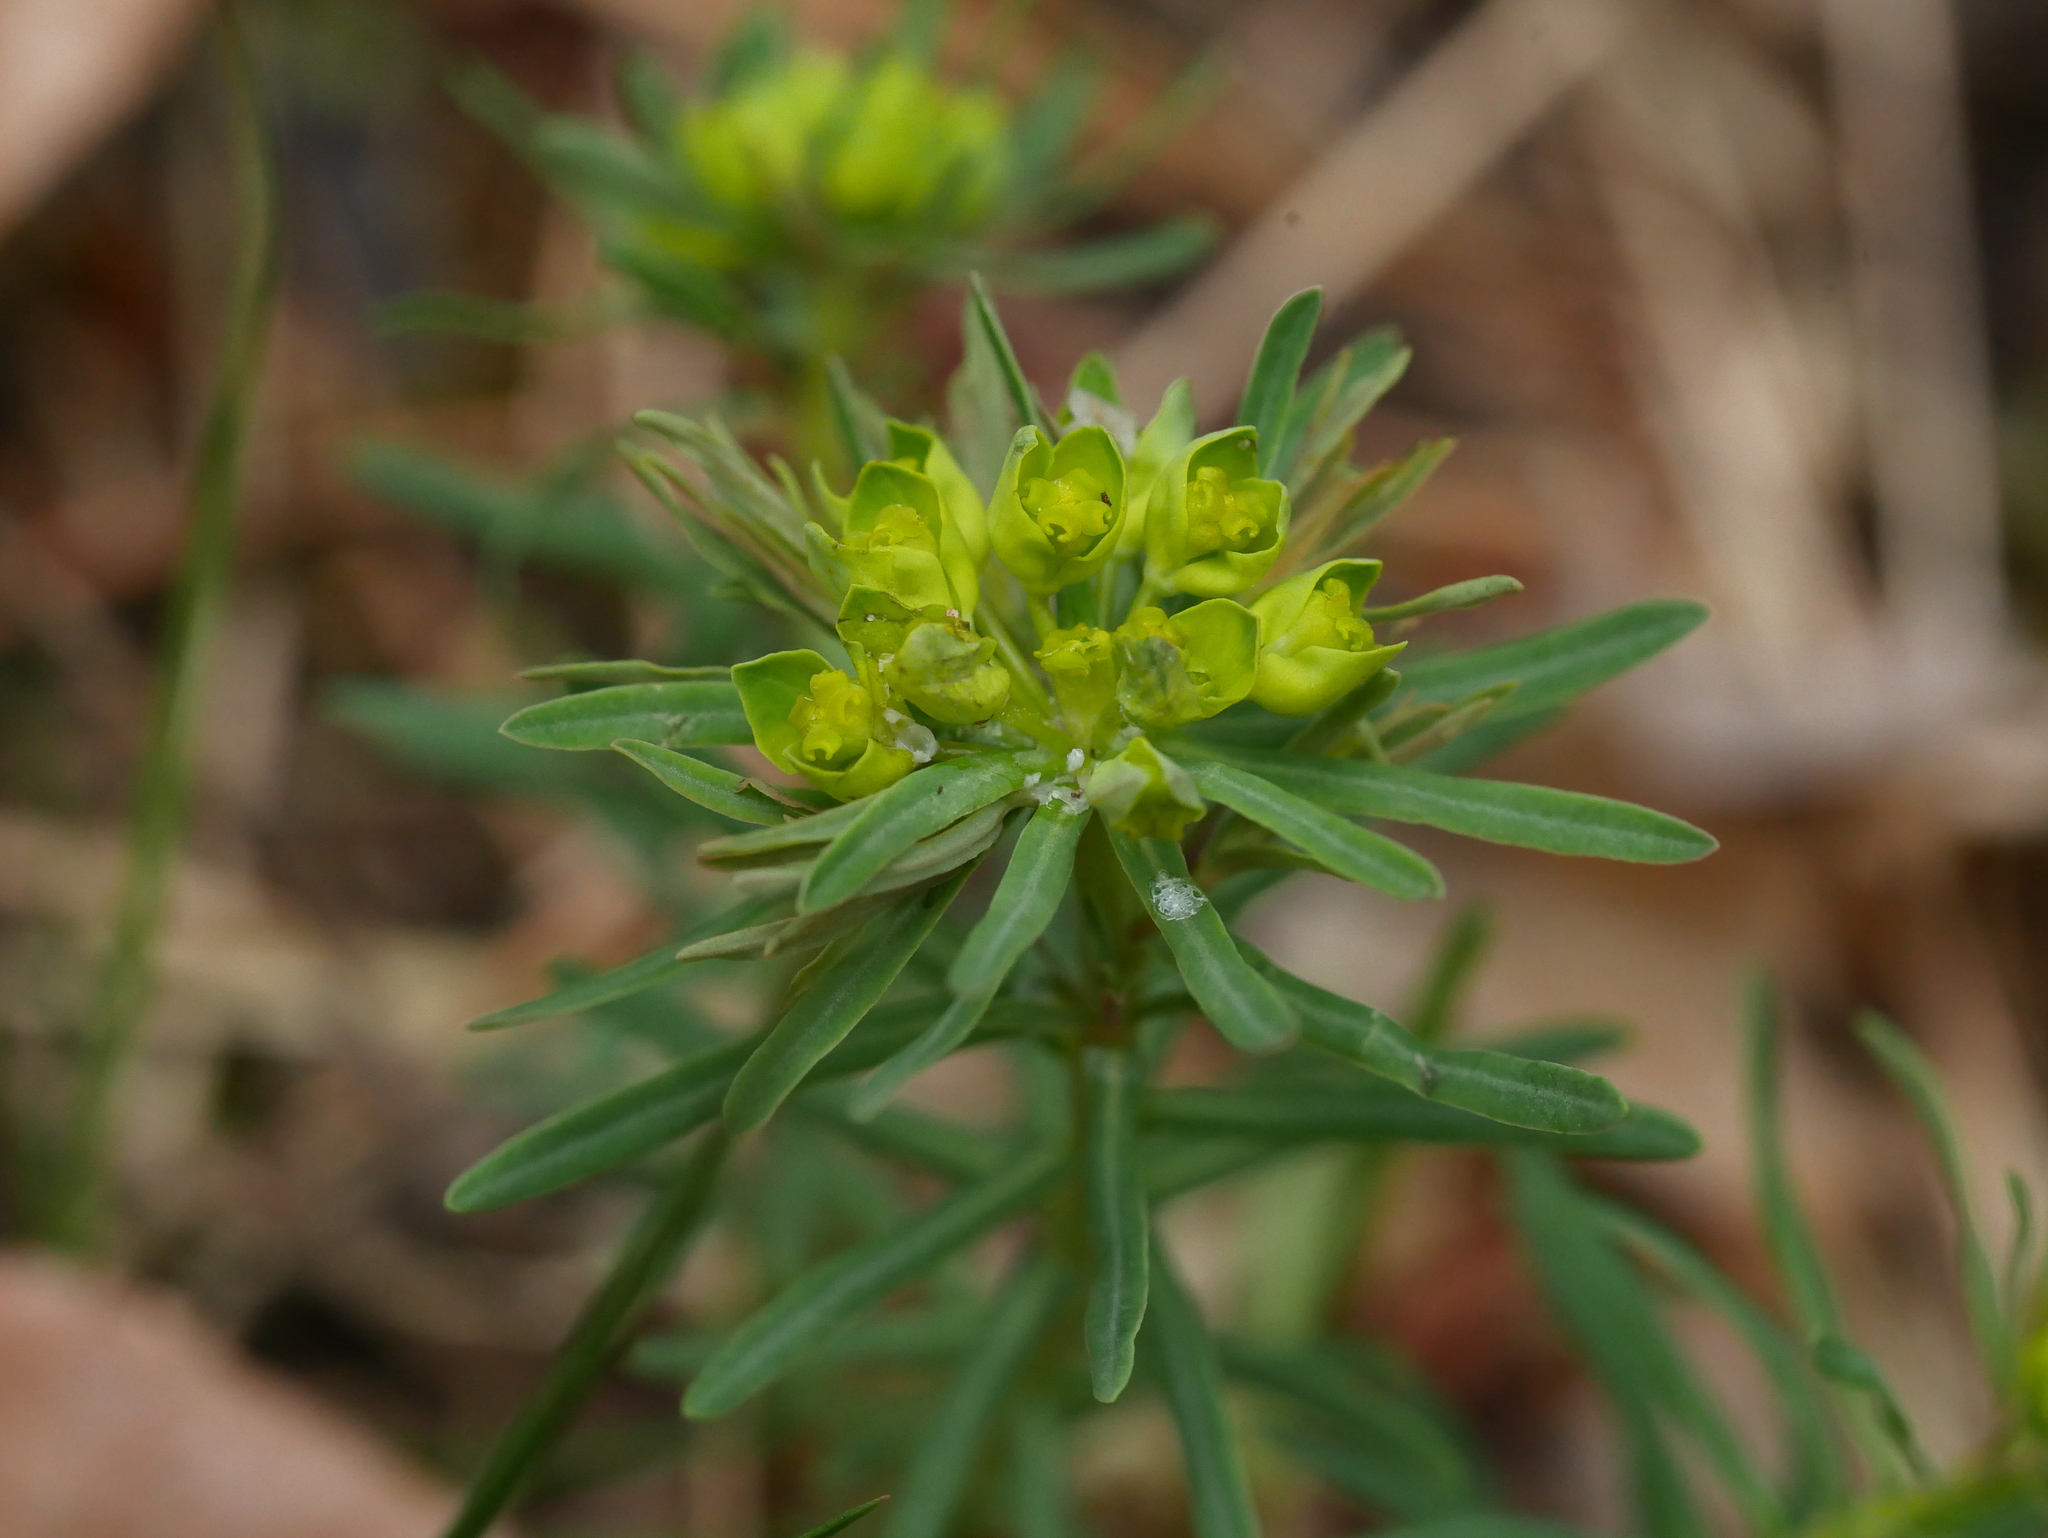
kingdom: Plantae
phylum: Tracheophyta
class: Magnoliopsida
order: Malpighiales
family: Euphorbiaceae
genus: Euphorbia
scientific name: Euphorbia cyparissias
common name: Cypress spurge
